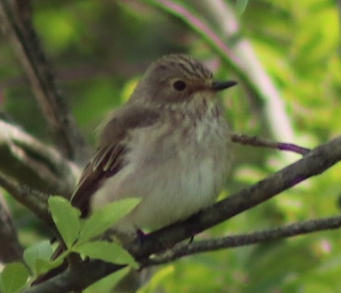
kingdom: Animalia
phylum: Chordata
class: Aves
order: Passeriformes
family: Muscicapidae
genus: Muscicapa
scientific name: Muscicapa striata
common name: Spotted flycatcher
